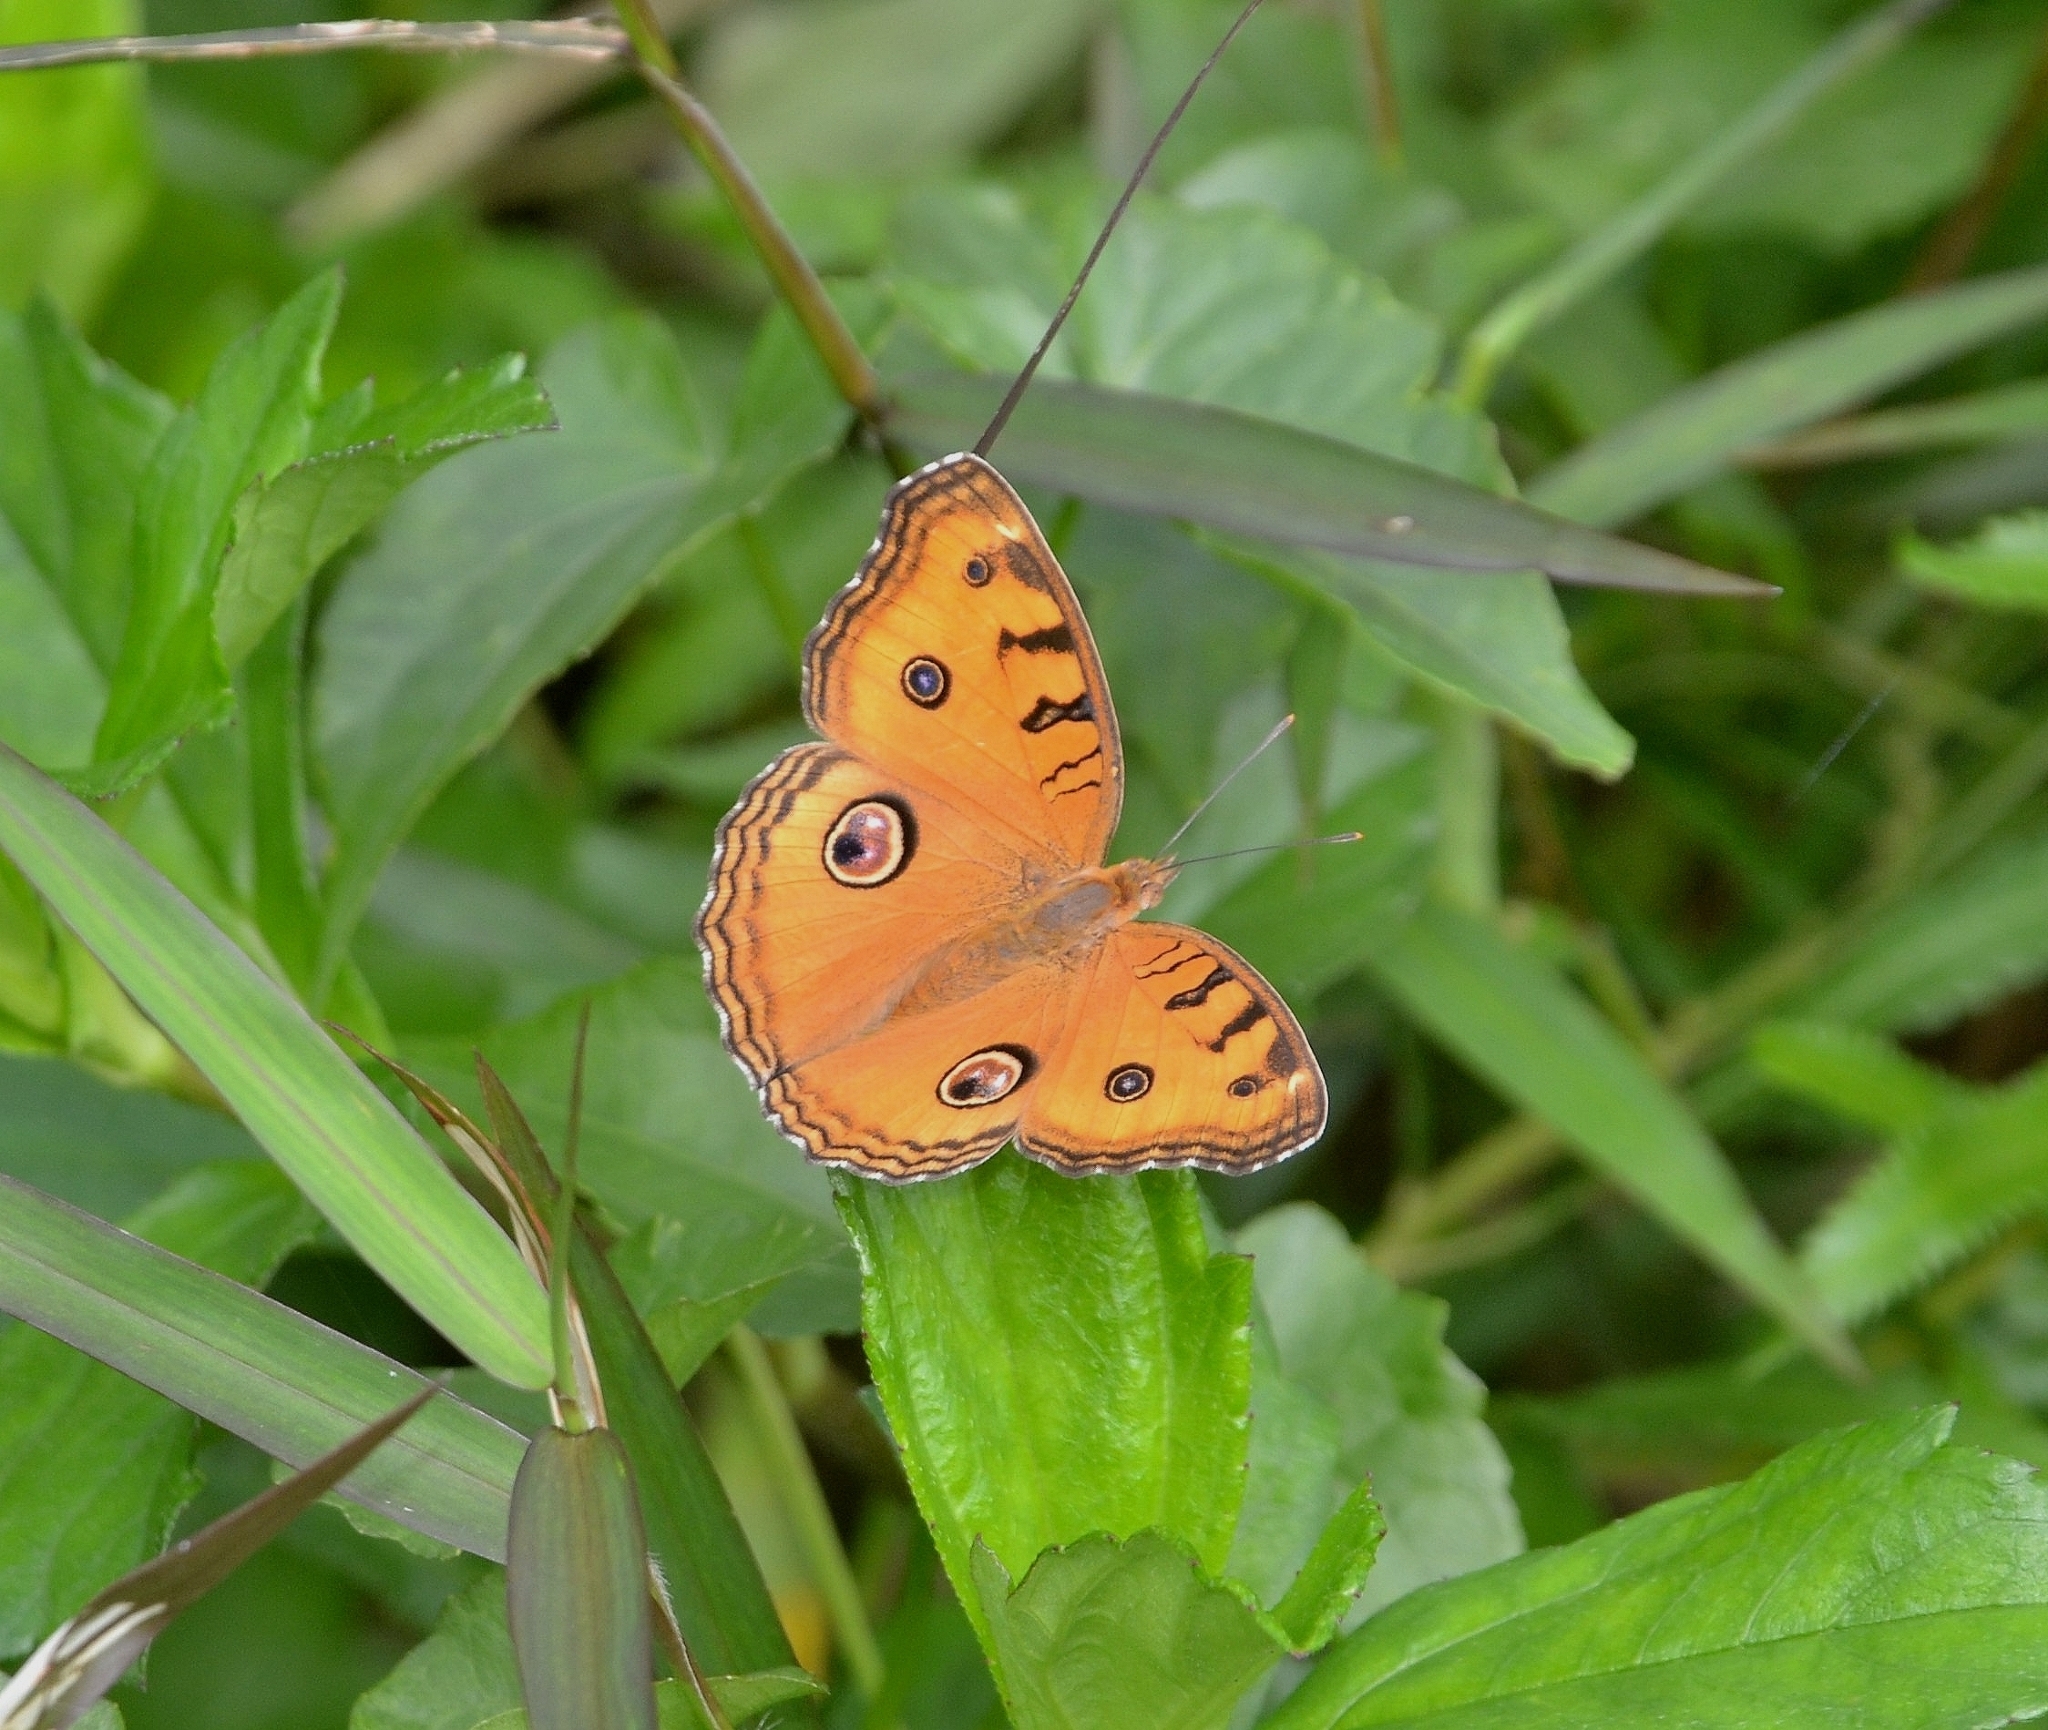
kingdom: Animalia
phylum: Arthropoda
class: Insecta
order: Lepidoptera
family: Nymphalidae
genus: Junonia
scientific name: Junonia almana
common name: Peacock pansy
